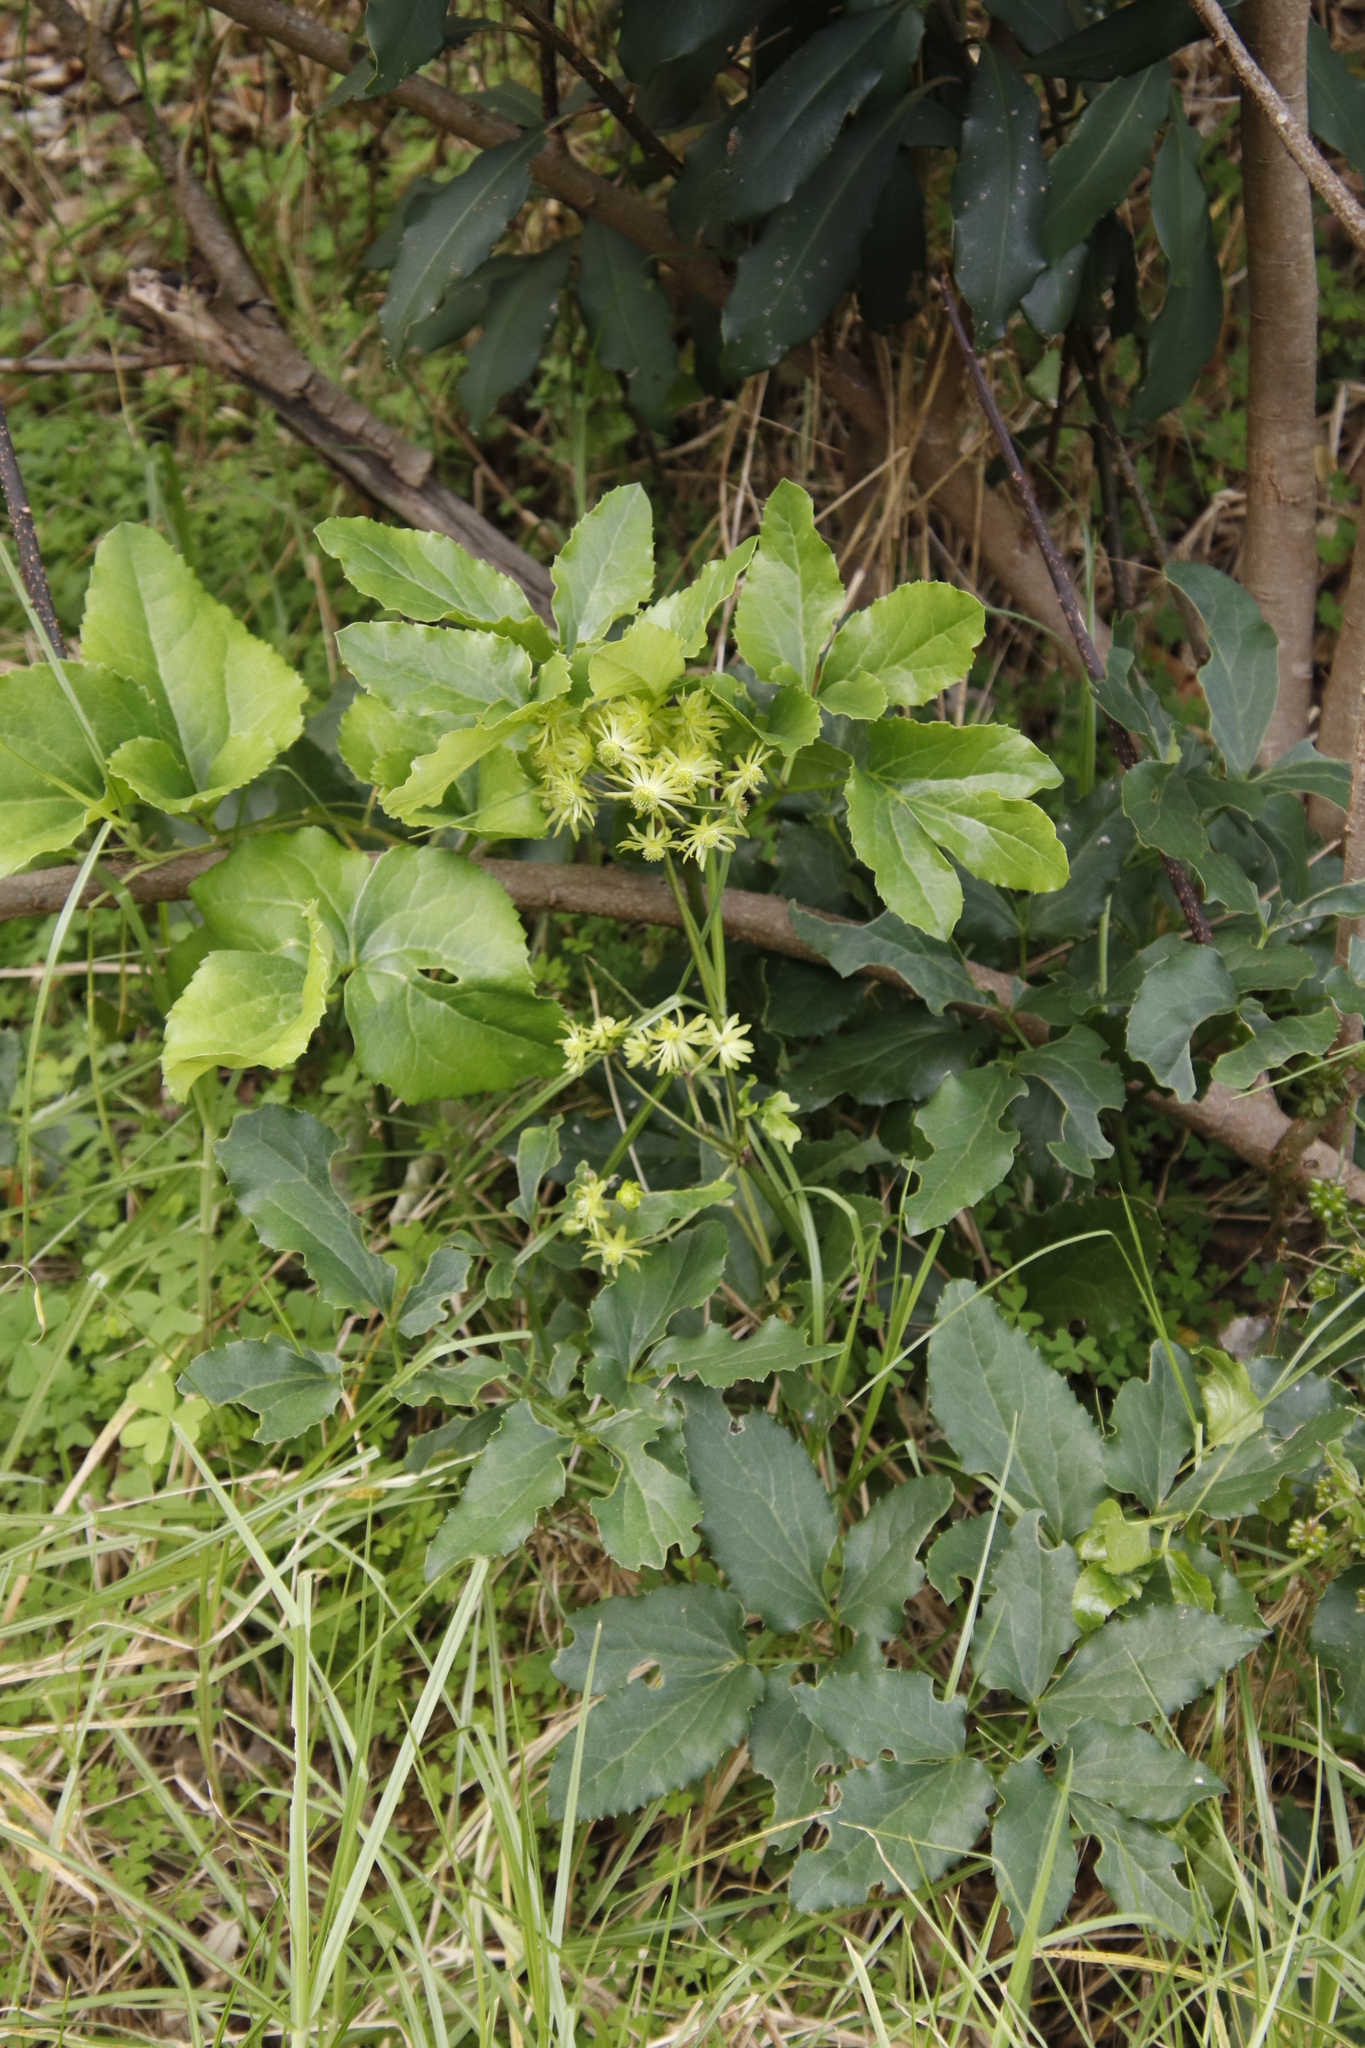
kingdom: Plantae
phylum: Tracheophyta
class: Magnoliopsida
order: Ranunculales
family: Ranunculaceae
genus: Knowltonia
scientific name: Knowltonia vesicatoria
